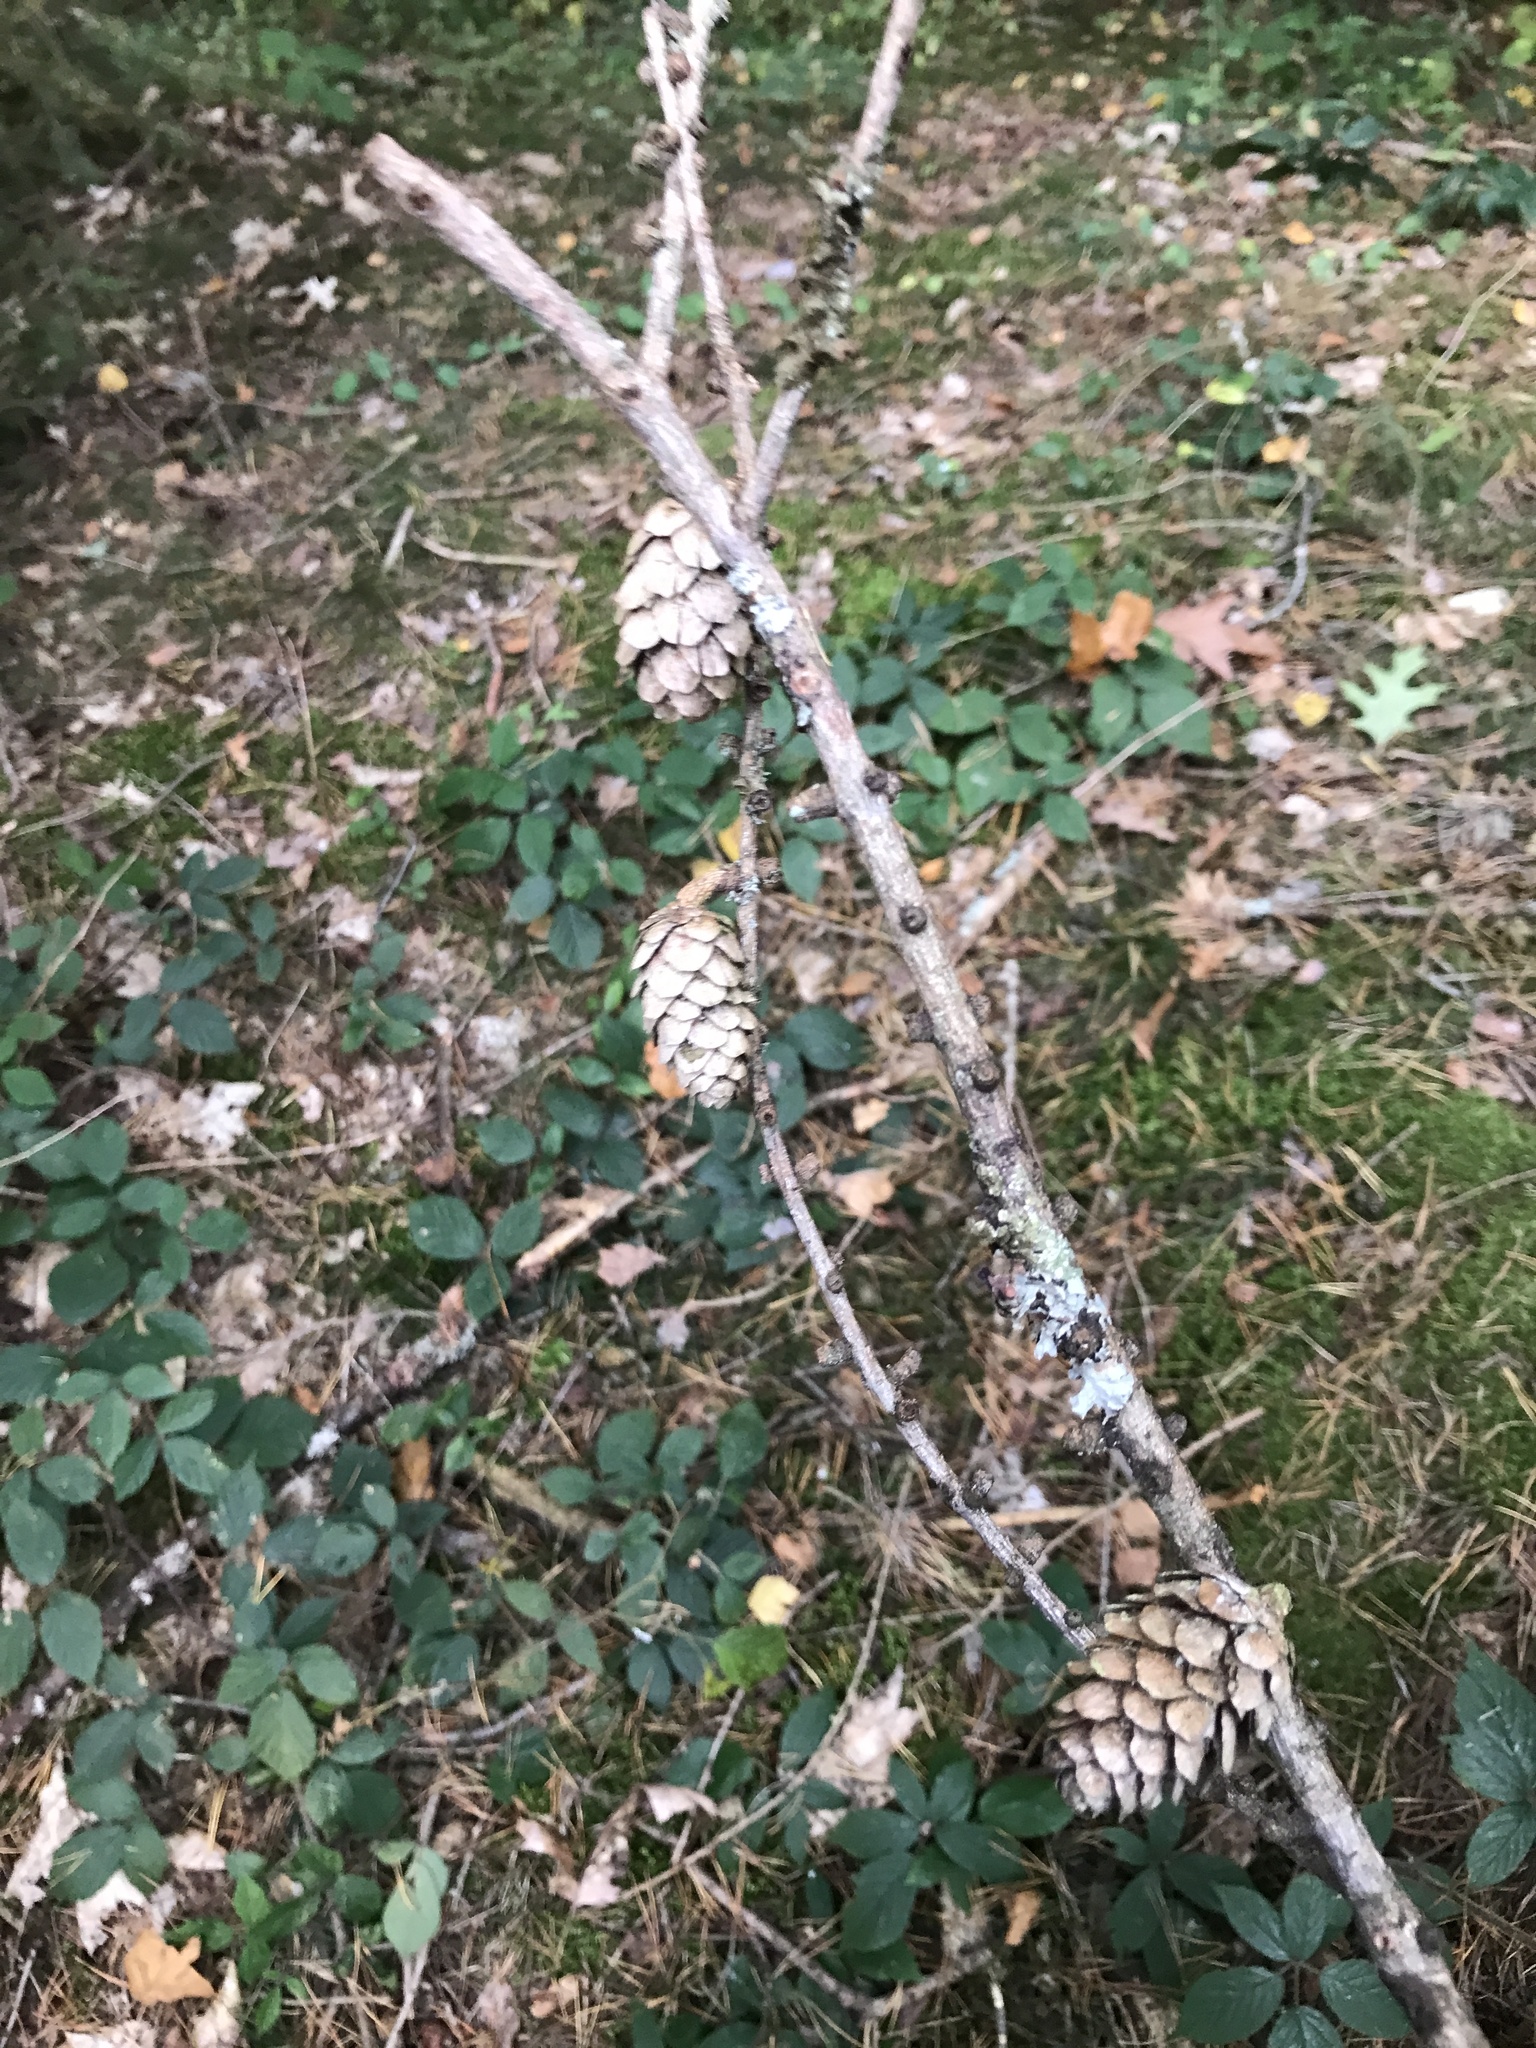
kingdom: Plantae
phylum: Tracheophyta
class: Pinopsida
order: Pinales
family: Pinaceae
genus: Larix
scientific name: Larix decidua
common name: European larch
